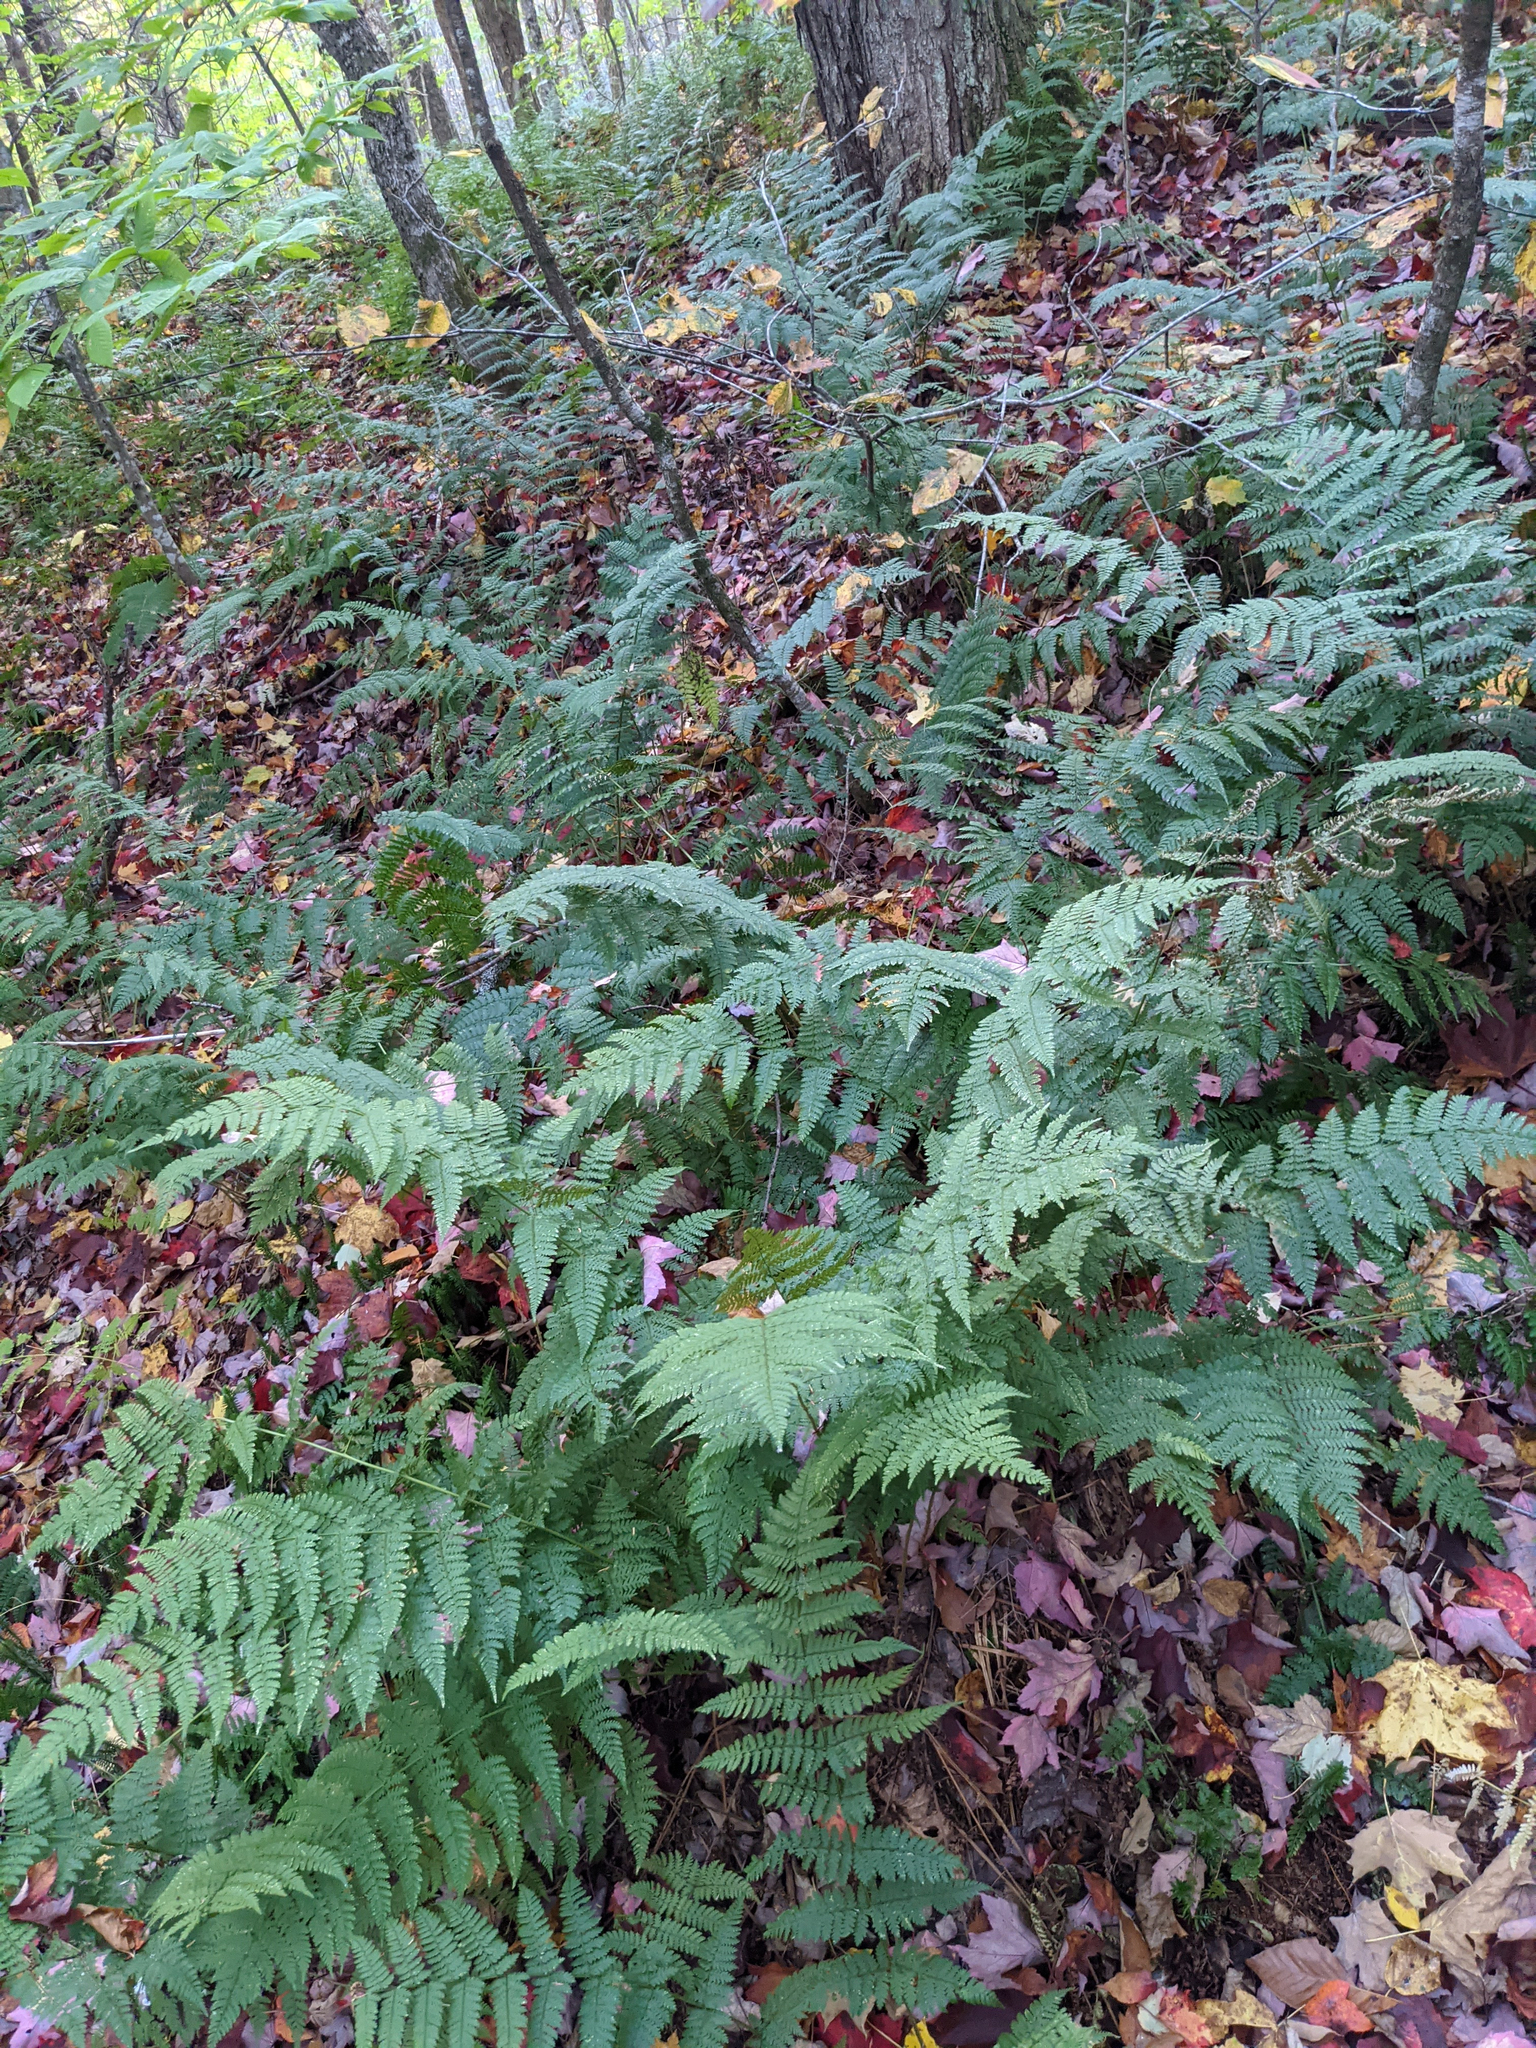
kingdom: Plantae
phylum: Tracheophyta
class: Polypodiopsida
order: Polypodiales
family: Dryopteridaceae
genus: Dryopteris
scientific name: Dryopteris intermedia
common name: Evergreen wood fern
